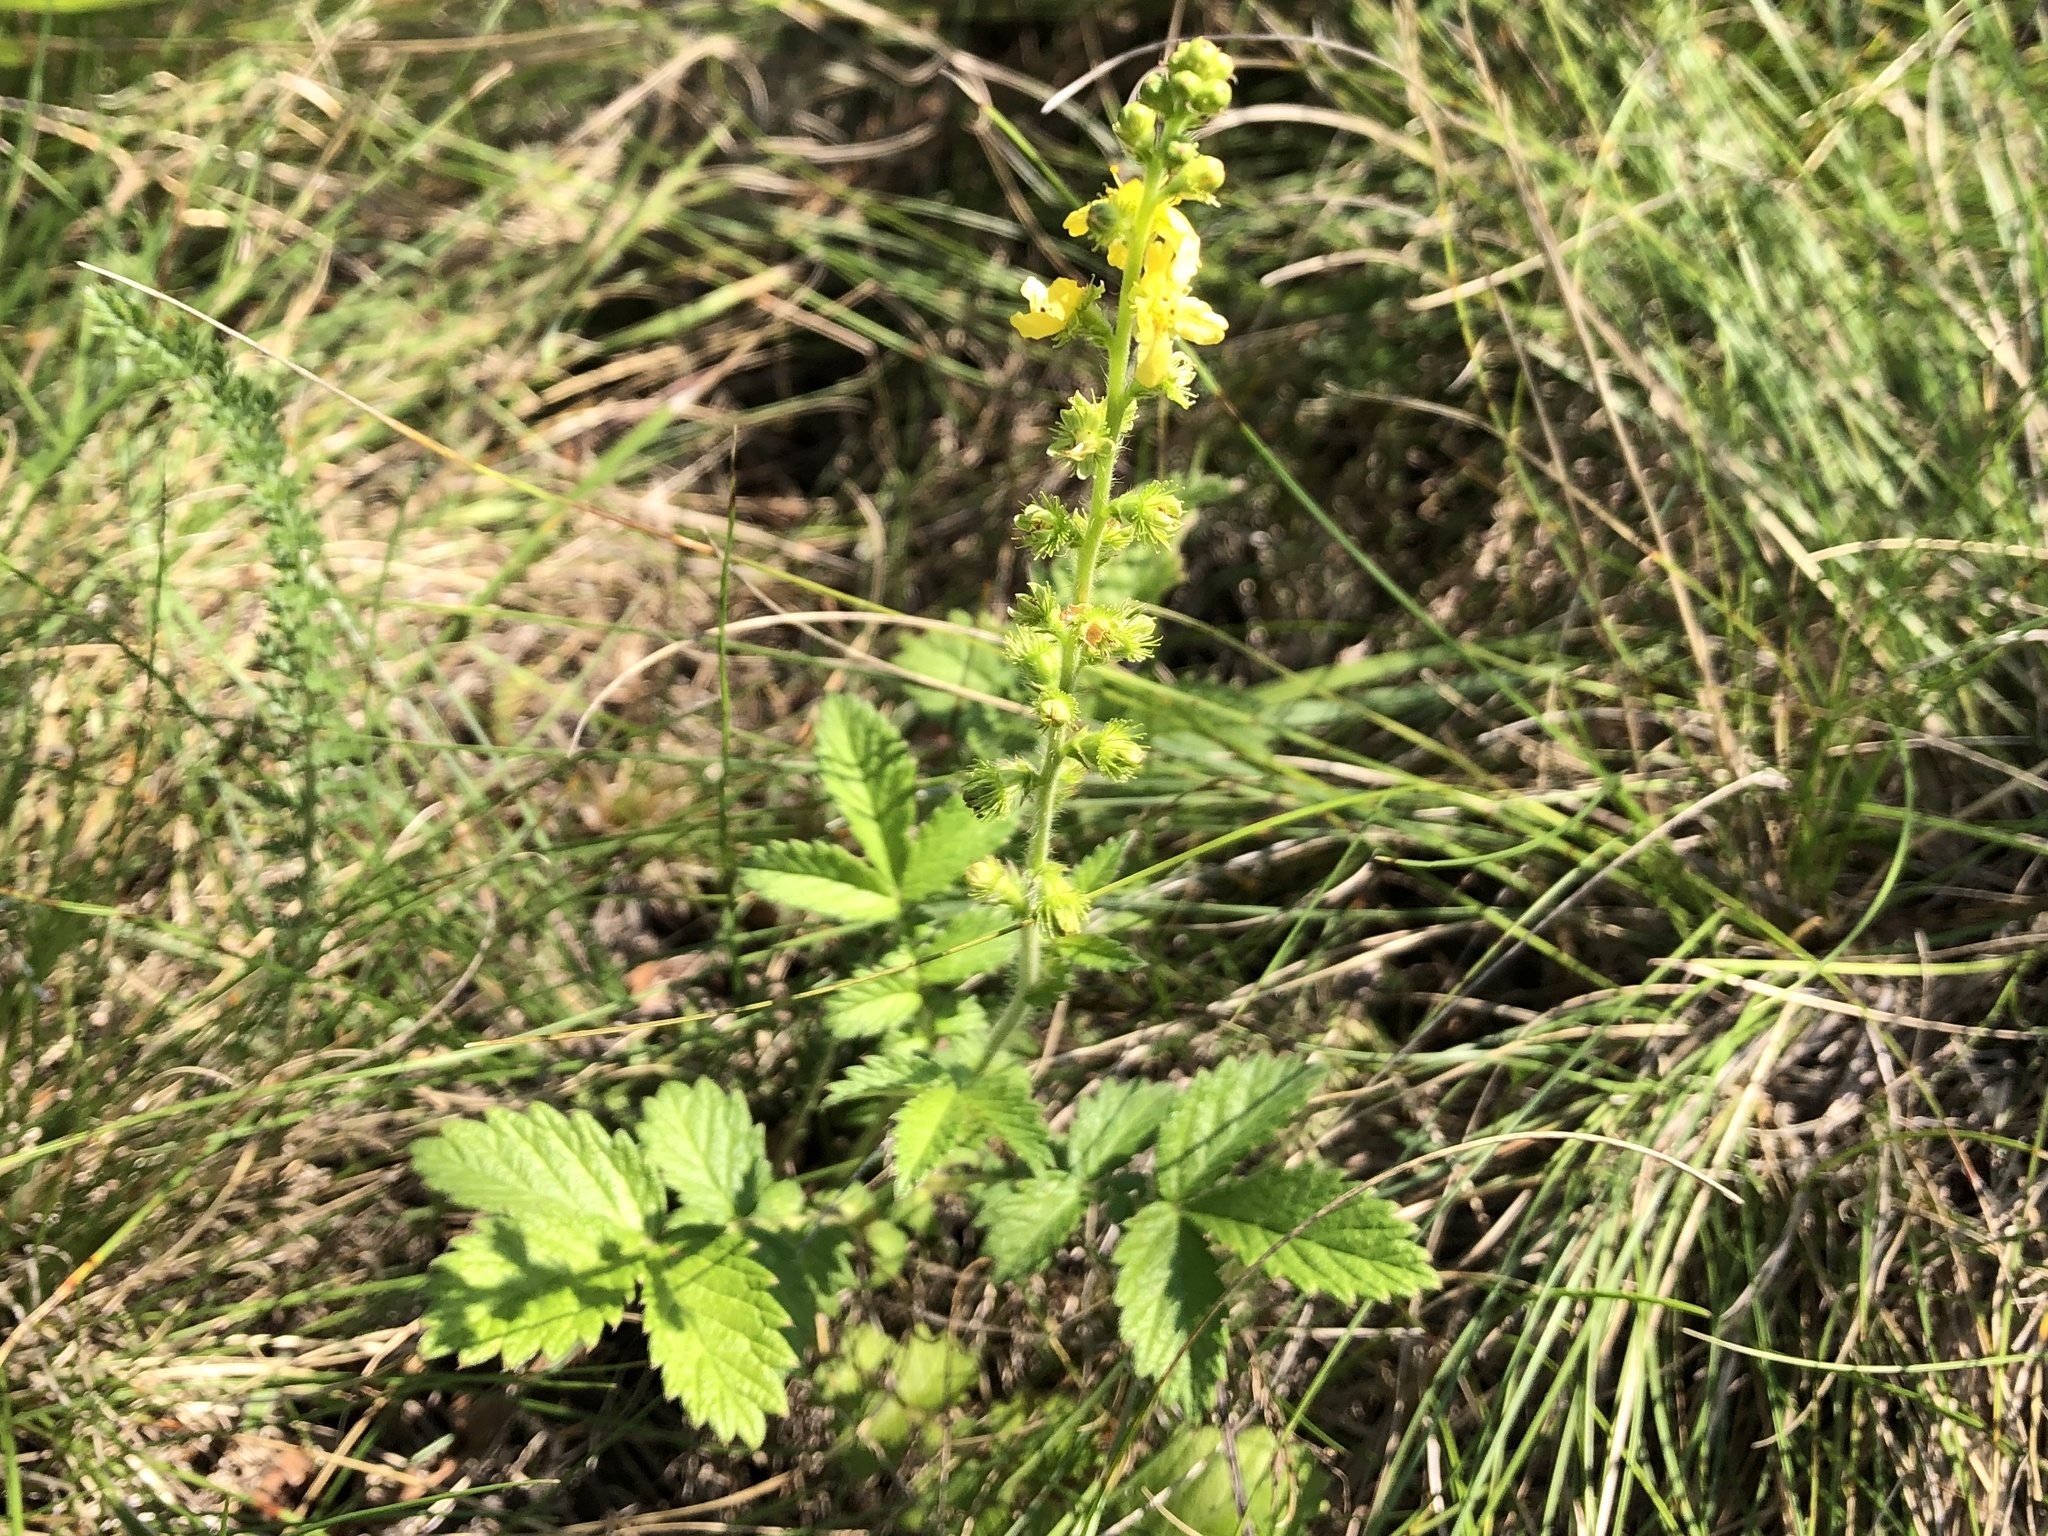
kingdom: Plantae
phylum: Tracheophyta
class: Magnoliopsida
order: Rosales
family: Rosaceae
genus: Agrimonia
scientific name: Agrimonia eupatoria
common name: Agrimony
